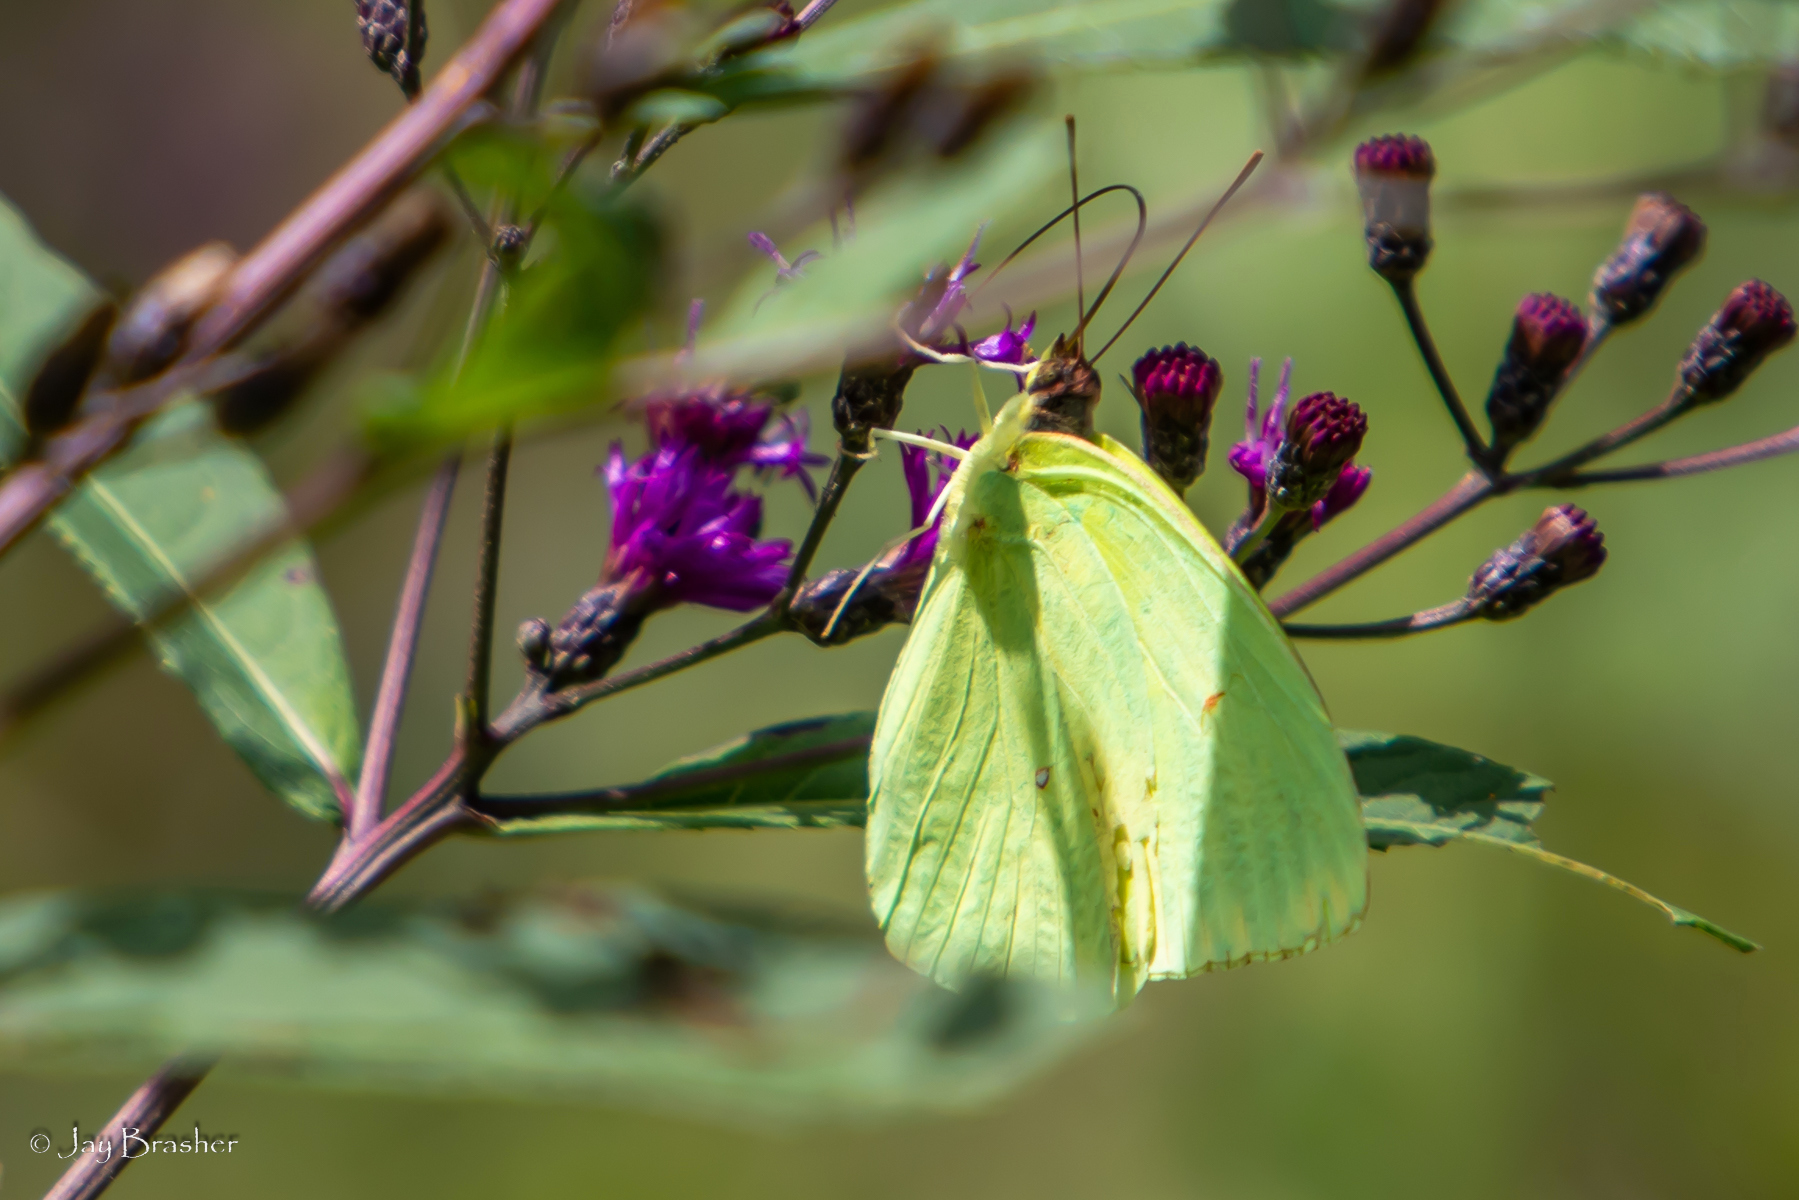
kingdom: Animalia
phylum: Arthropoda
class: Insecta
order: Lepidoptera
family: Pieridae
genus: Phoebis
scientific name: Phoebis sennae
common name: Cloudless sulphur
